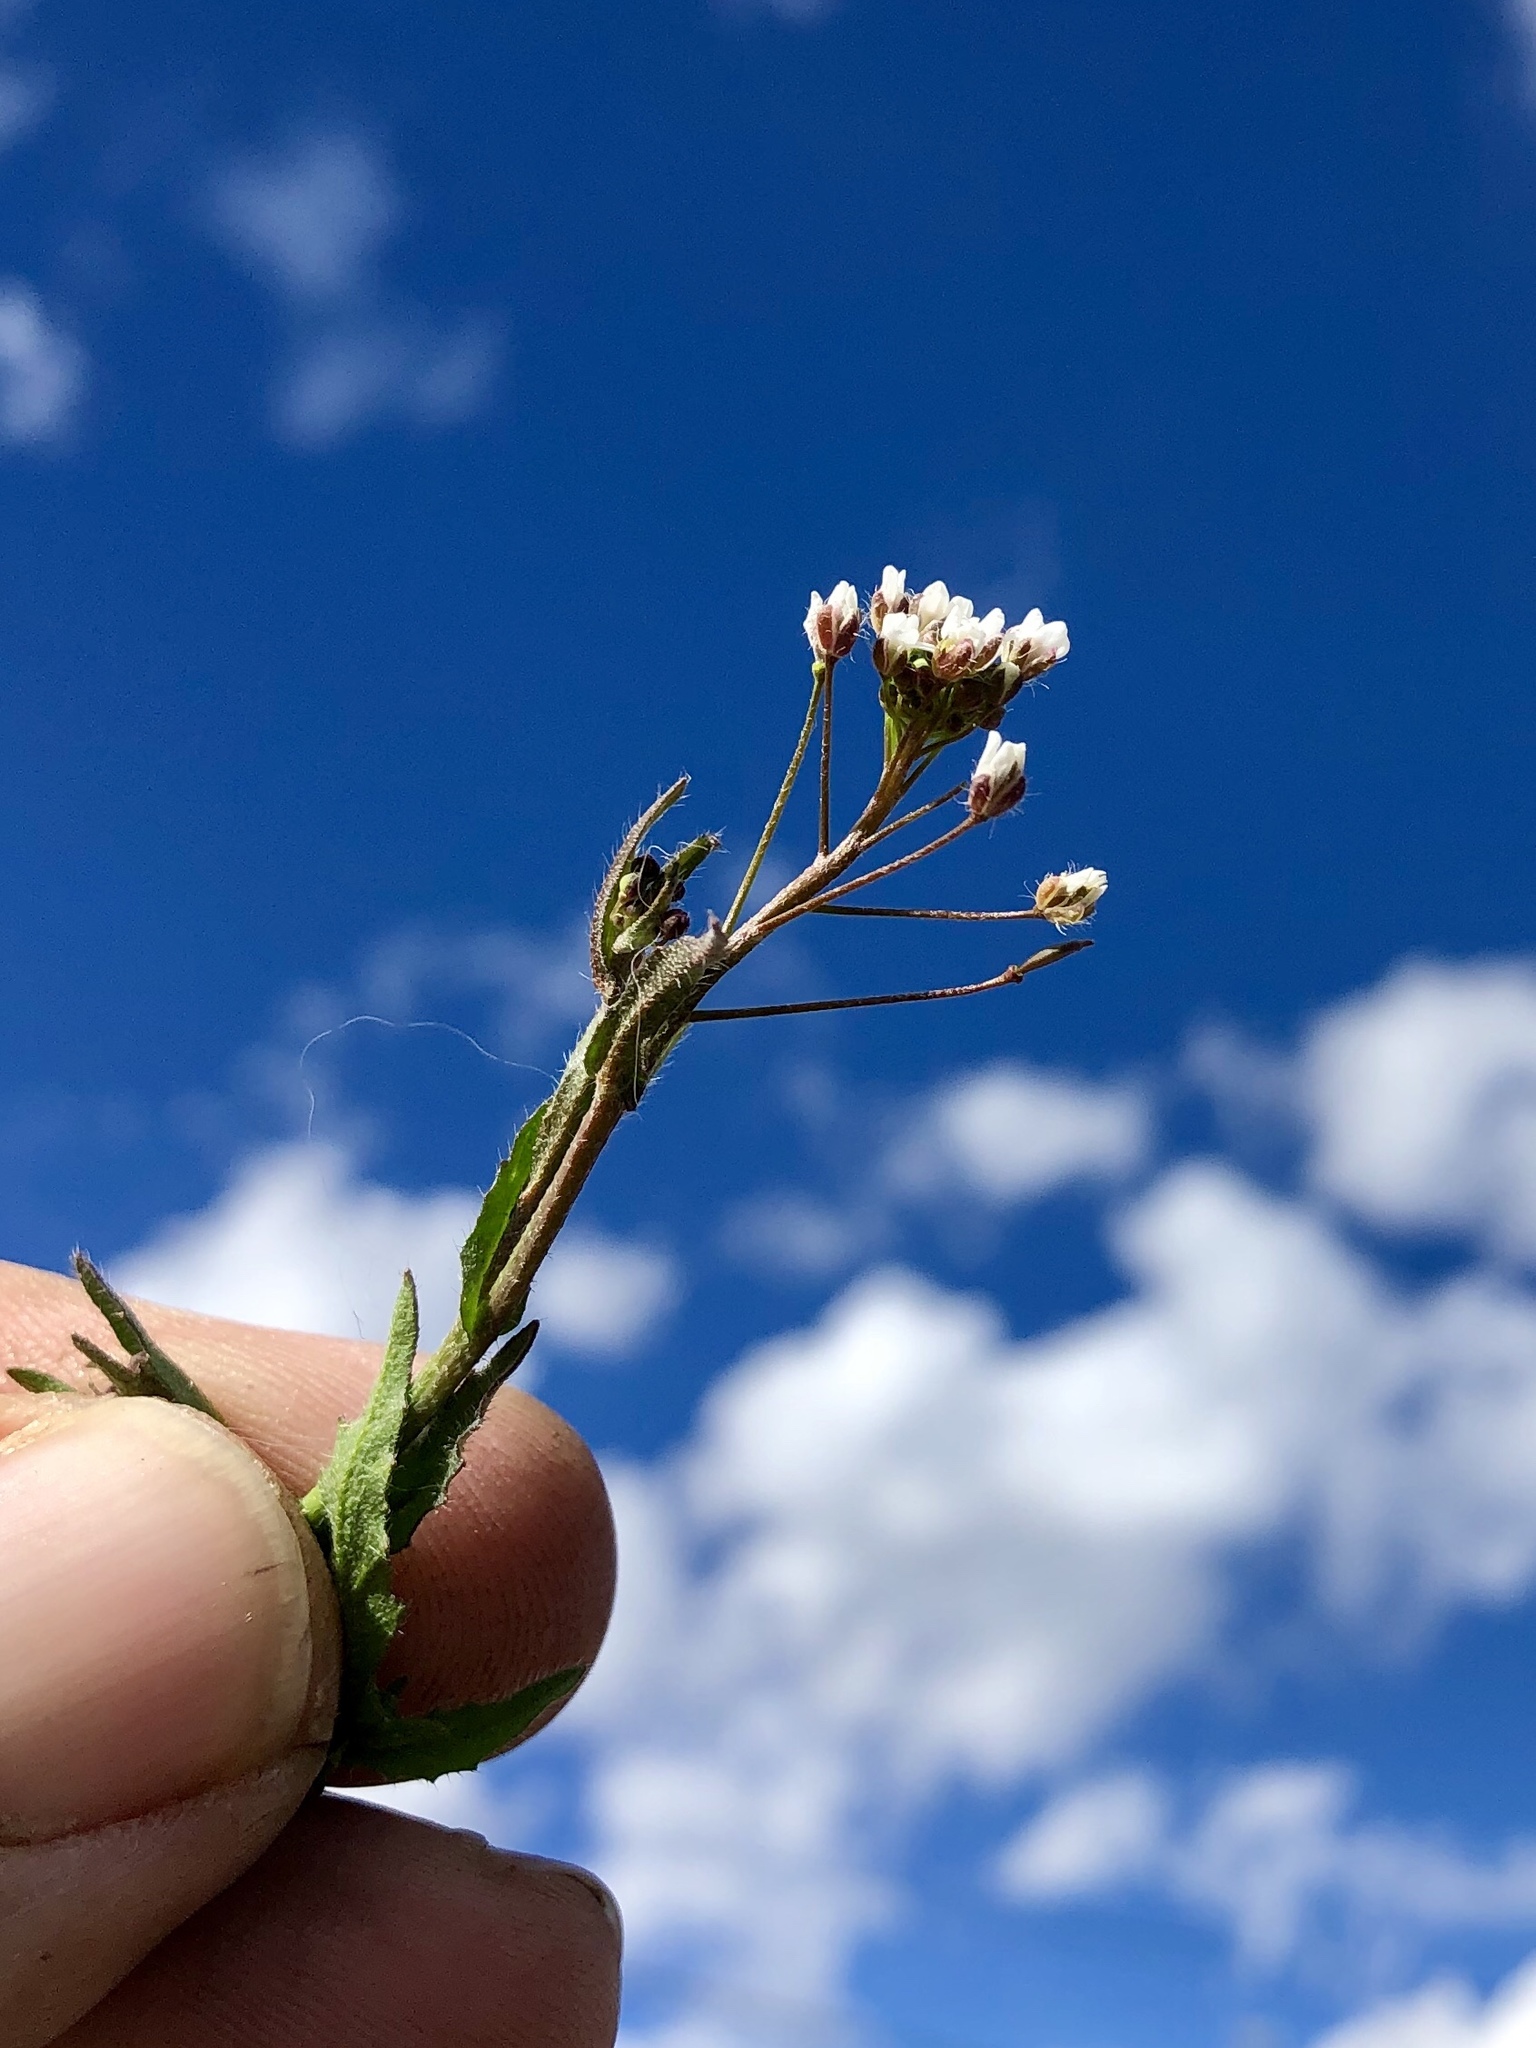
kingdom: Plantae
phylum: Tracheophyta
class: Magnoliopsida
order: Brassicales
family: Brassicaceae
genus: Capsella
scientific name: Capsella bursa-pastoris
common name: Shepherd's purse
